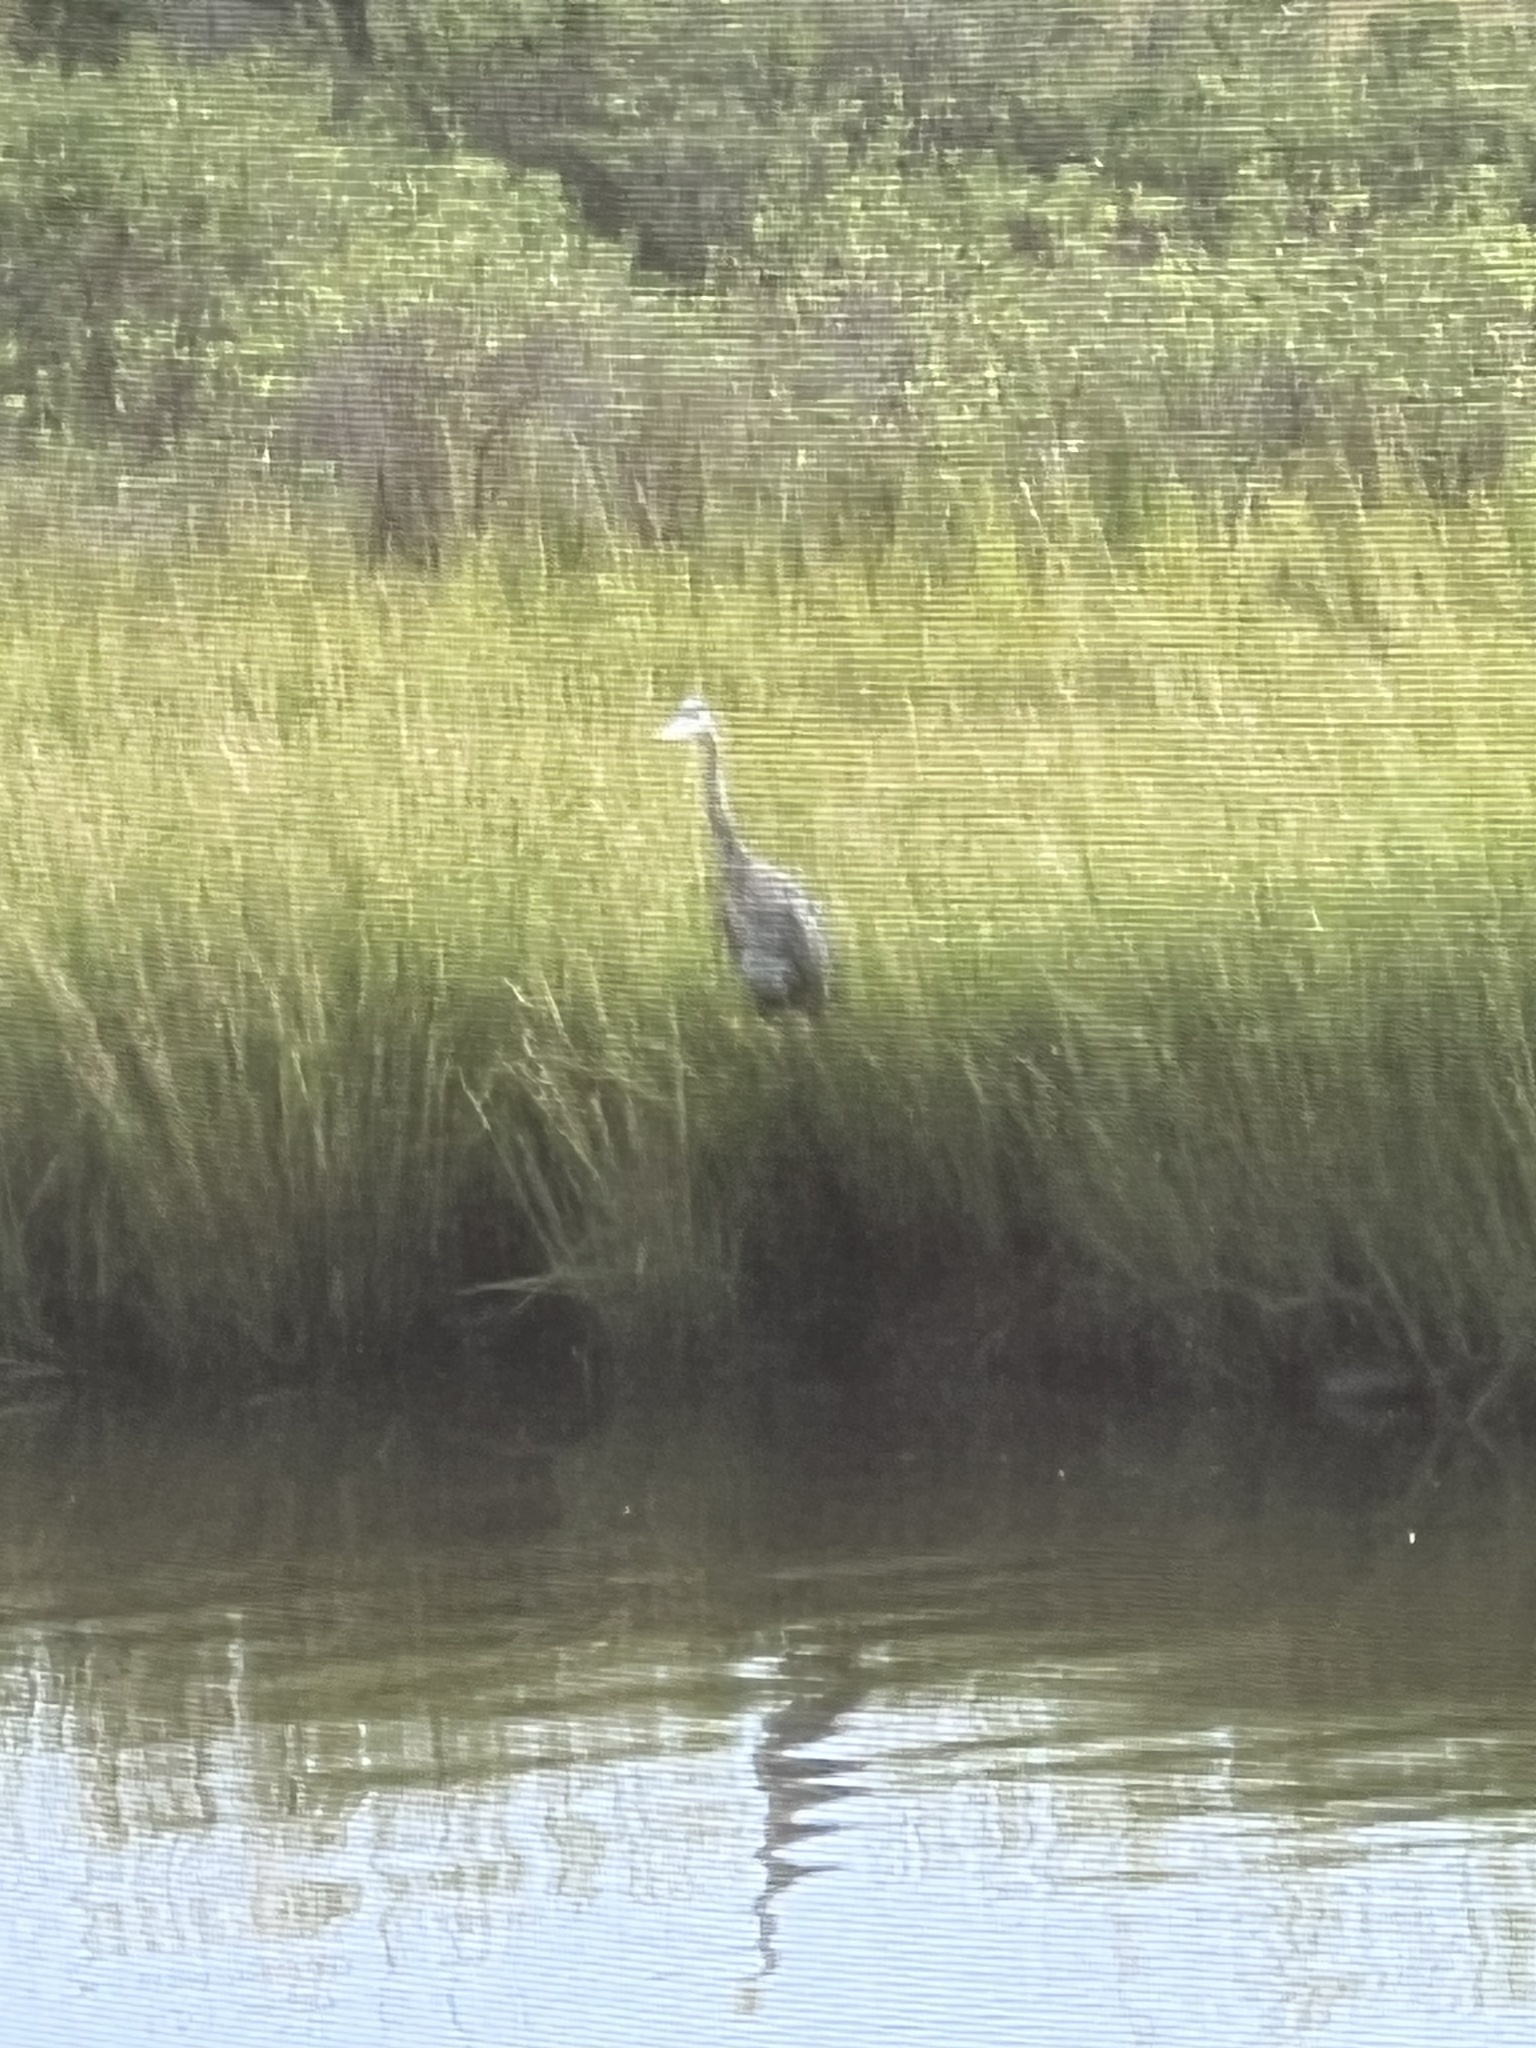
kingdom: Animalia
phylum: Chordata
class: Aves
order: Pelecaniformes
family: Ardeidae
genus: Ardea
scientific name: Ardea herodias
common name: Great blue heron
